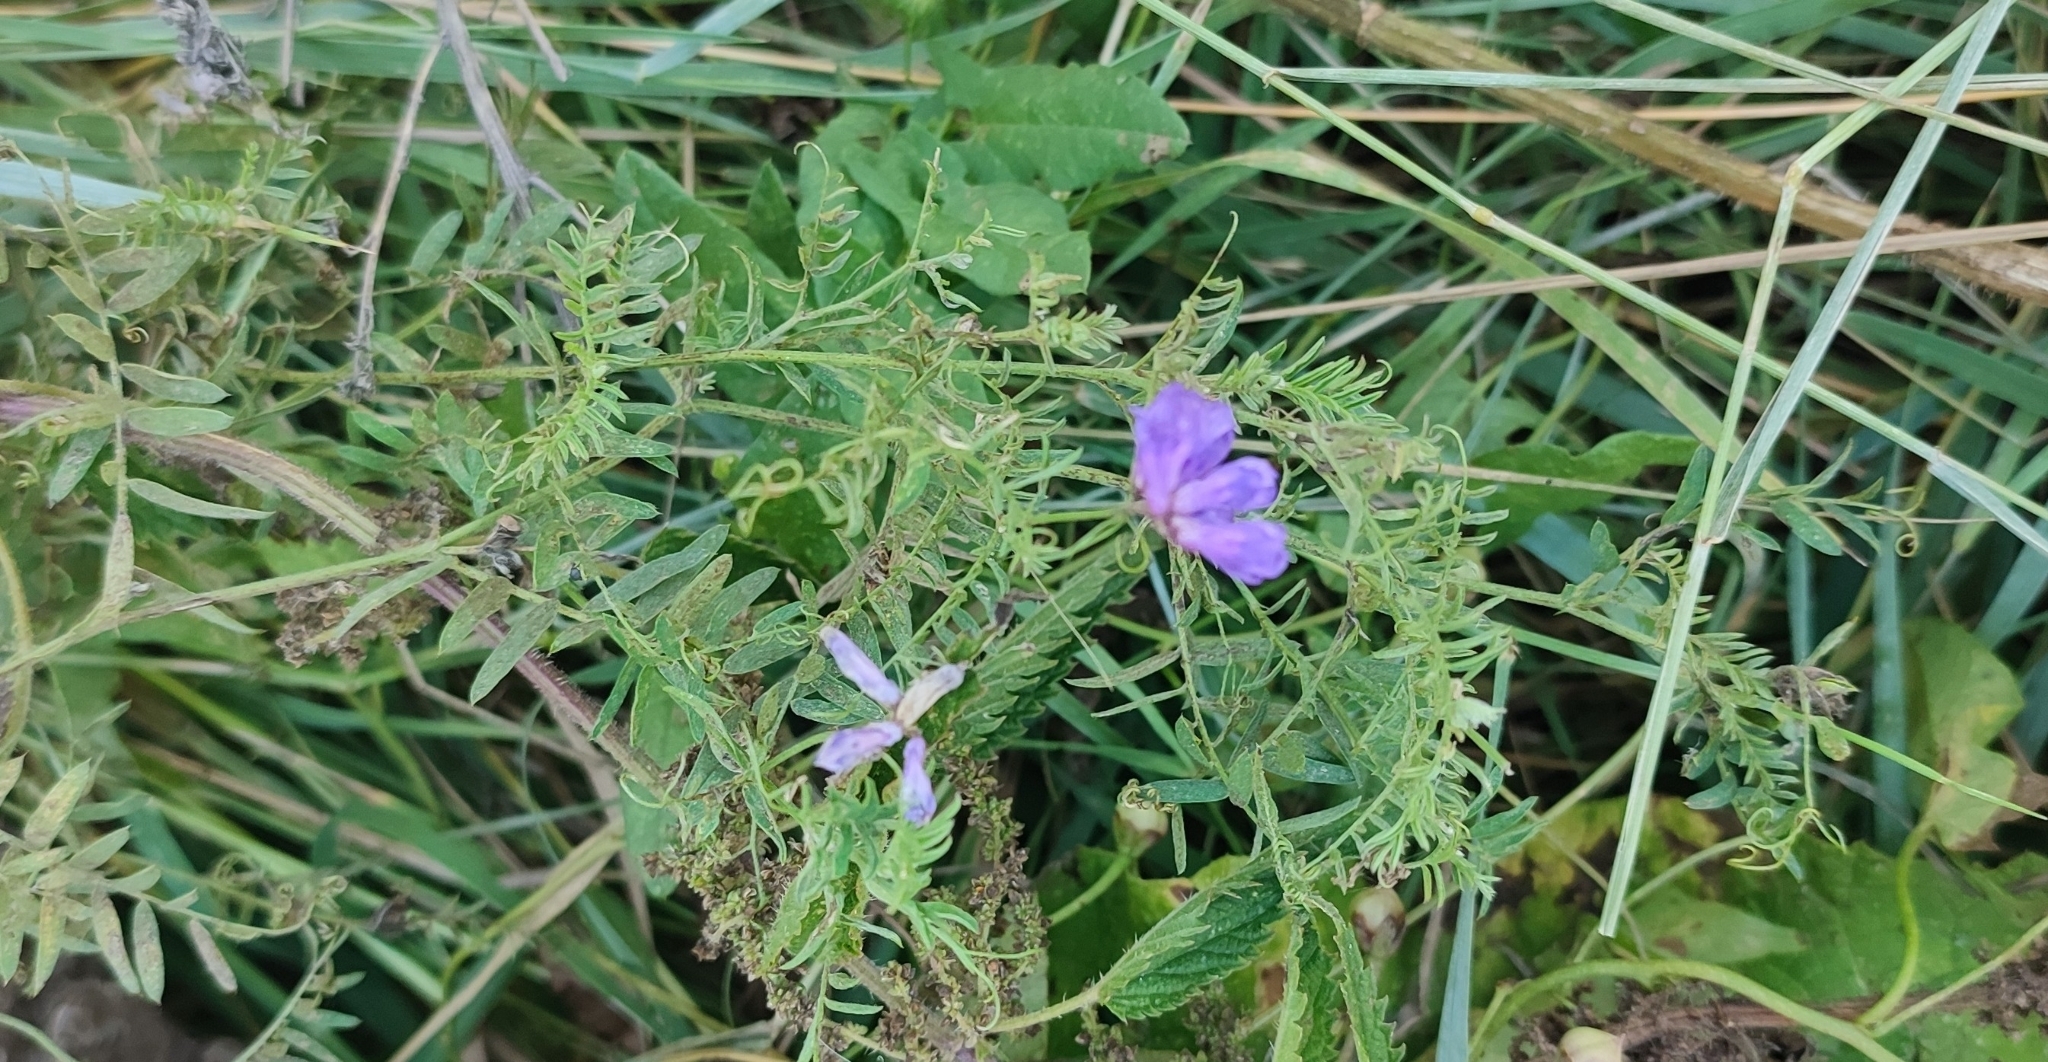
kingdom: Plantae
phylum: Tracheophyta
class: Magnoliopsida
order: Fabales
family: Fabaceae
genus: Vicia
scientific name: Vicia cracca
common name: Bird vetch
